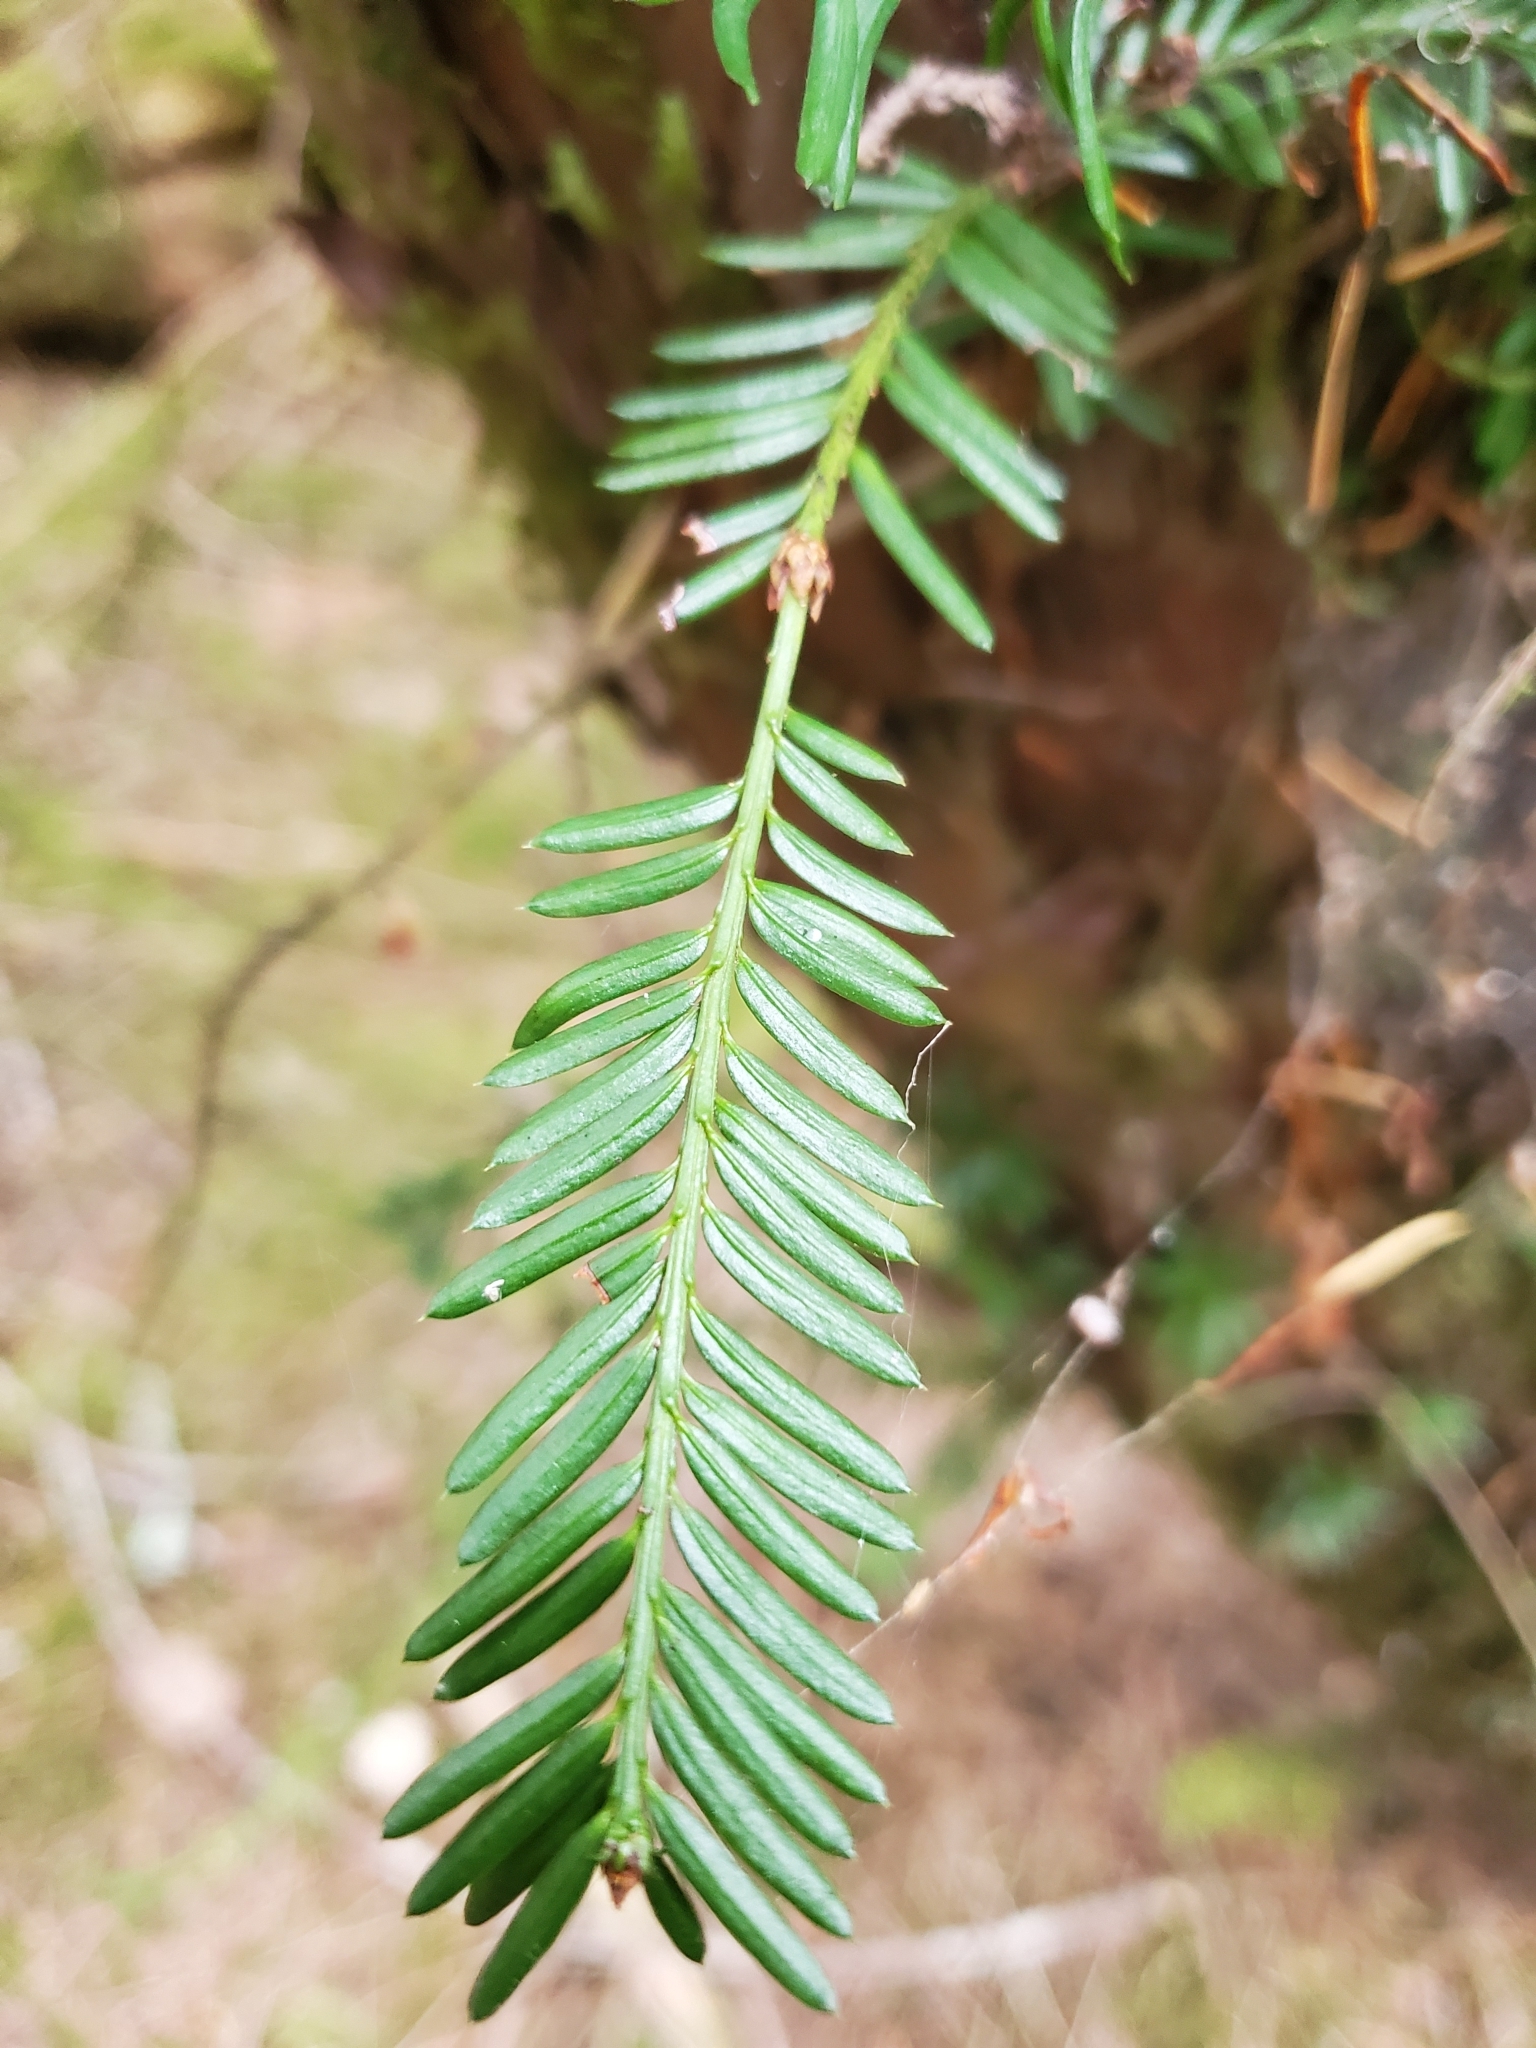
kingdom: Plantae
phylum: Tracheophyta
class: Pinopsida
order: Pinales
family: Taxaceae
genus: Taxus
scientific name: Taxus brevifolia
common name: Pacific yew
